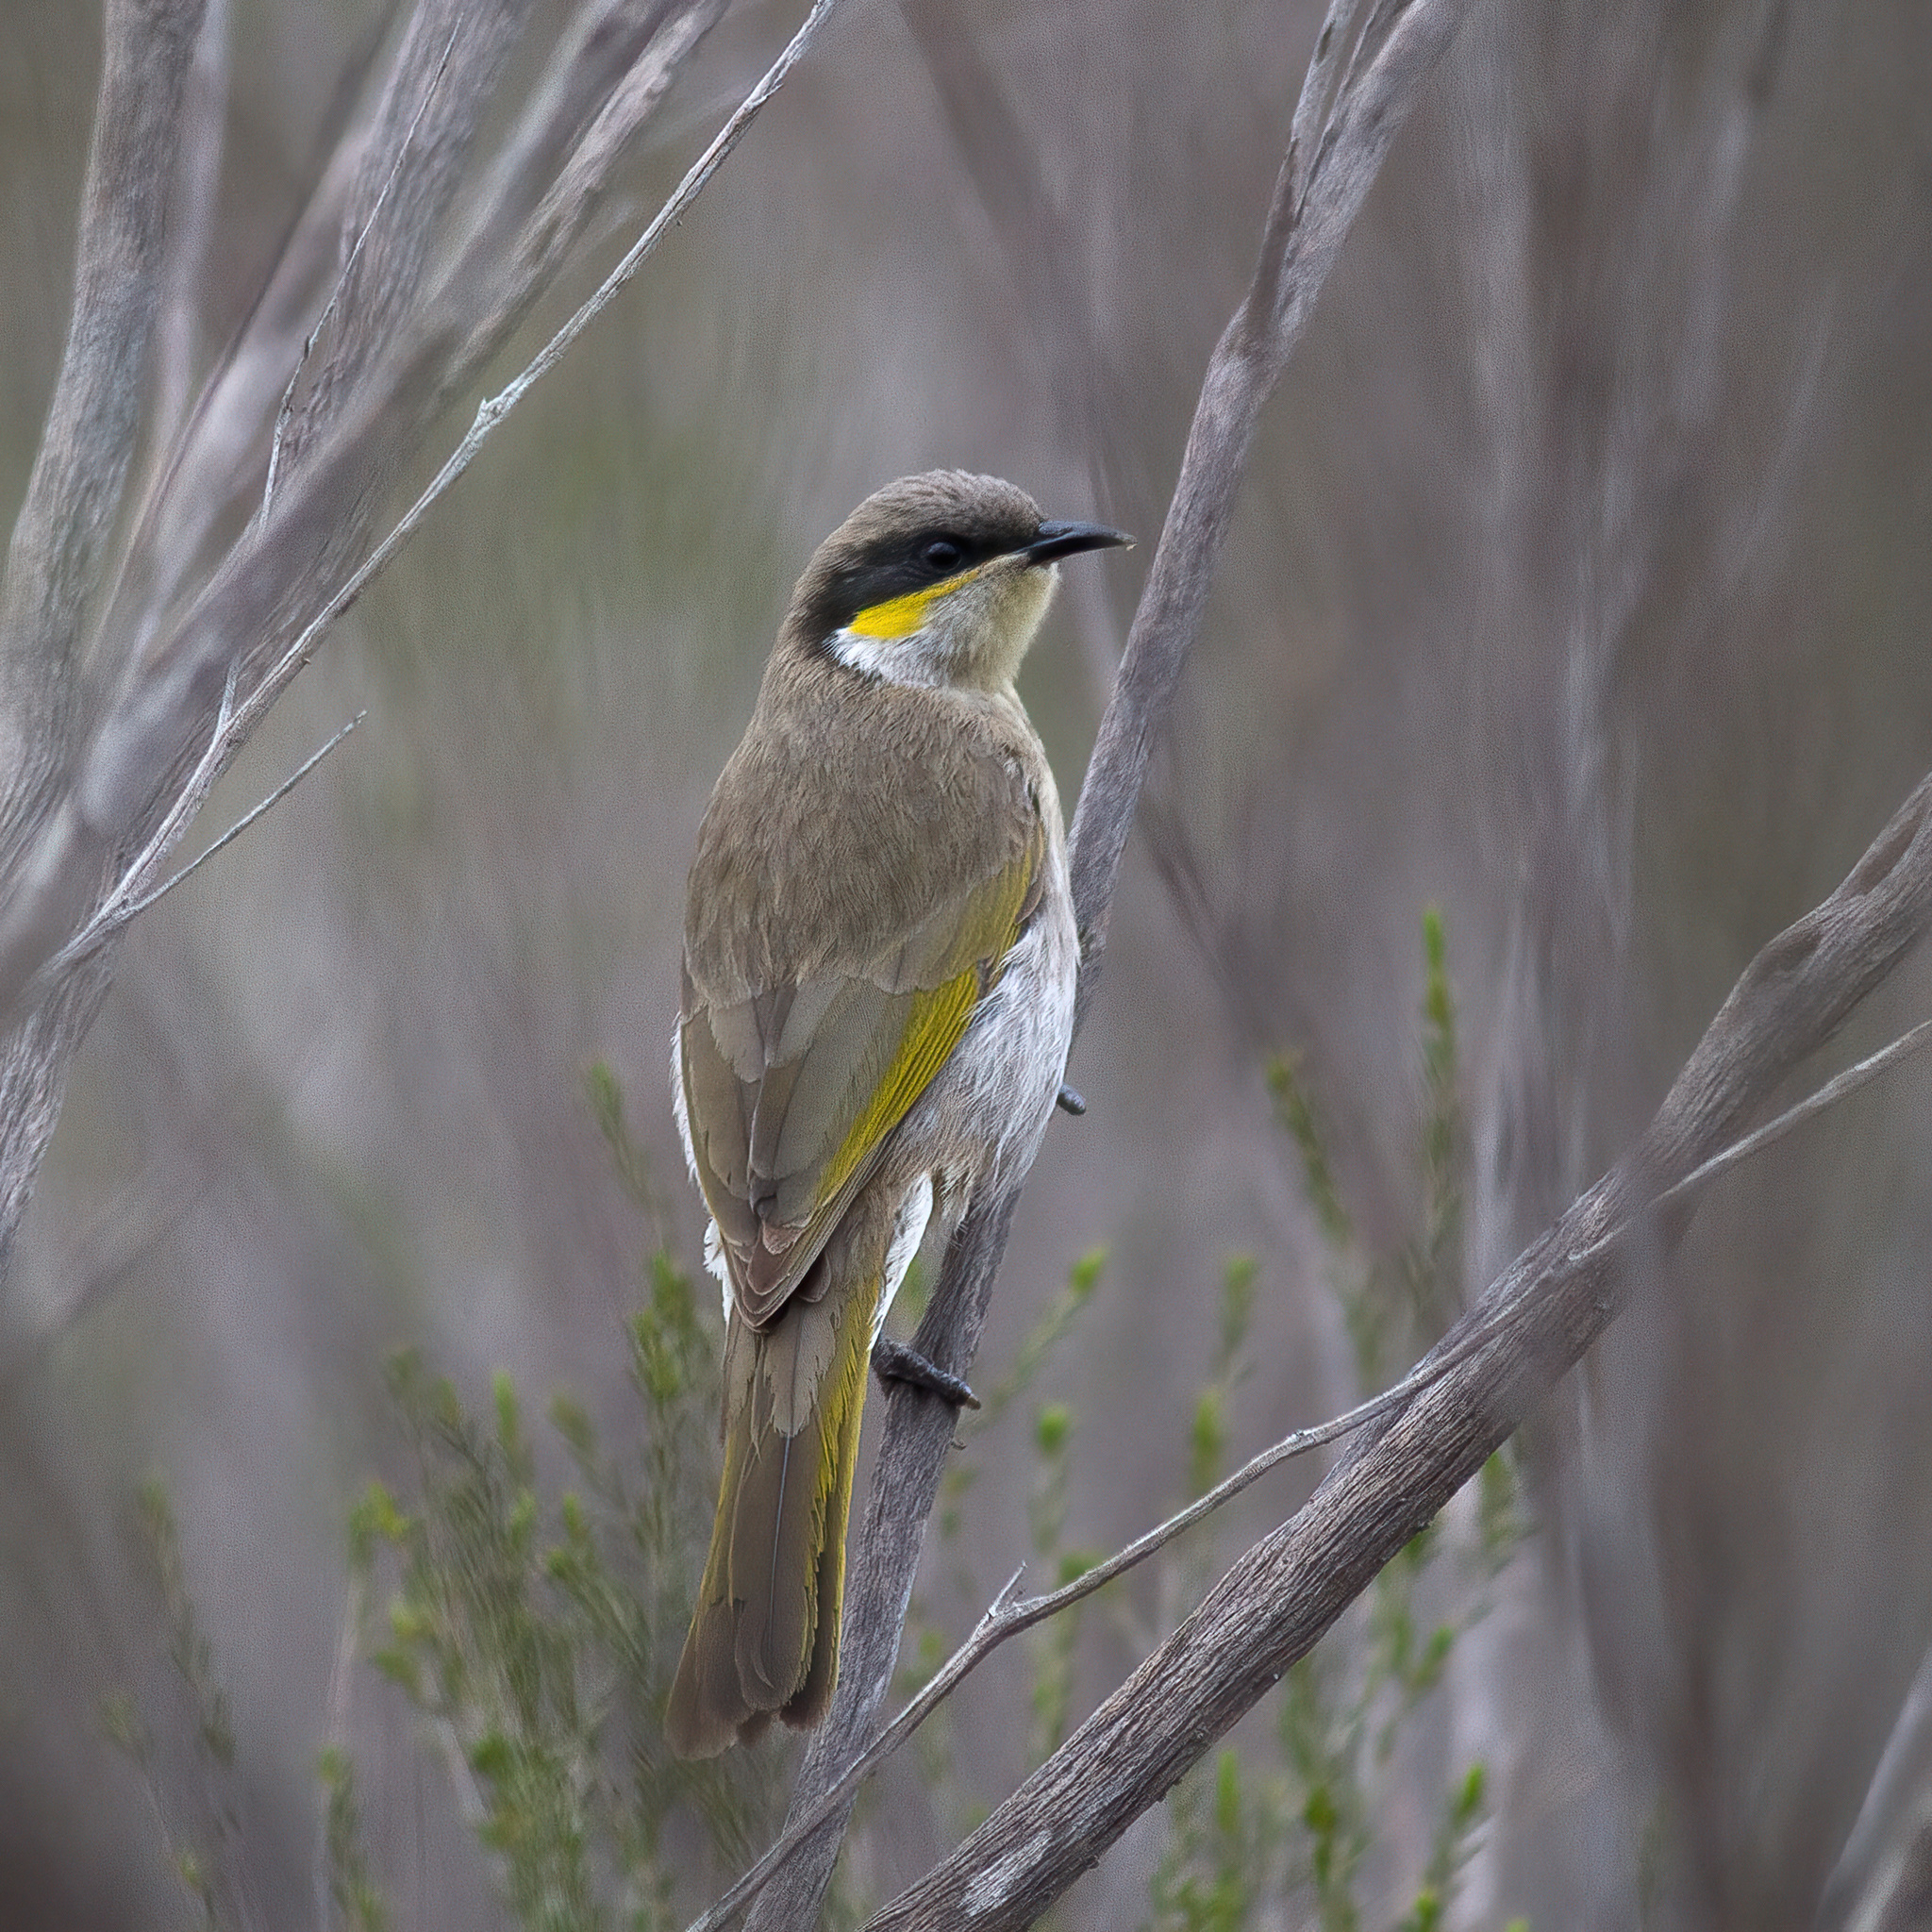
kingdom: Animalia
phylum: Chordata
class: Aves
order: Passeriformes
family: Meliphagidae
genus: Gavicalis
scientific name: Gavicalis virescens
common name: Singing honeyeater
